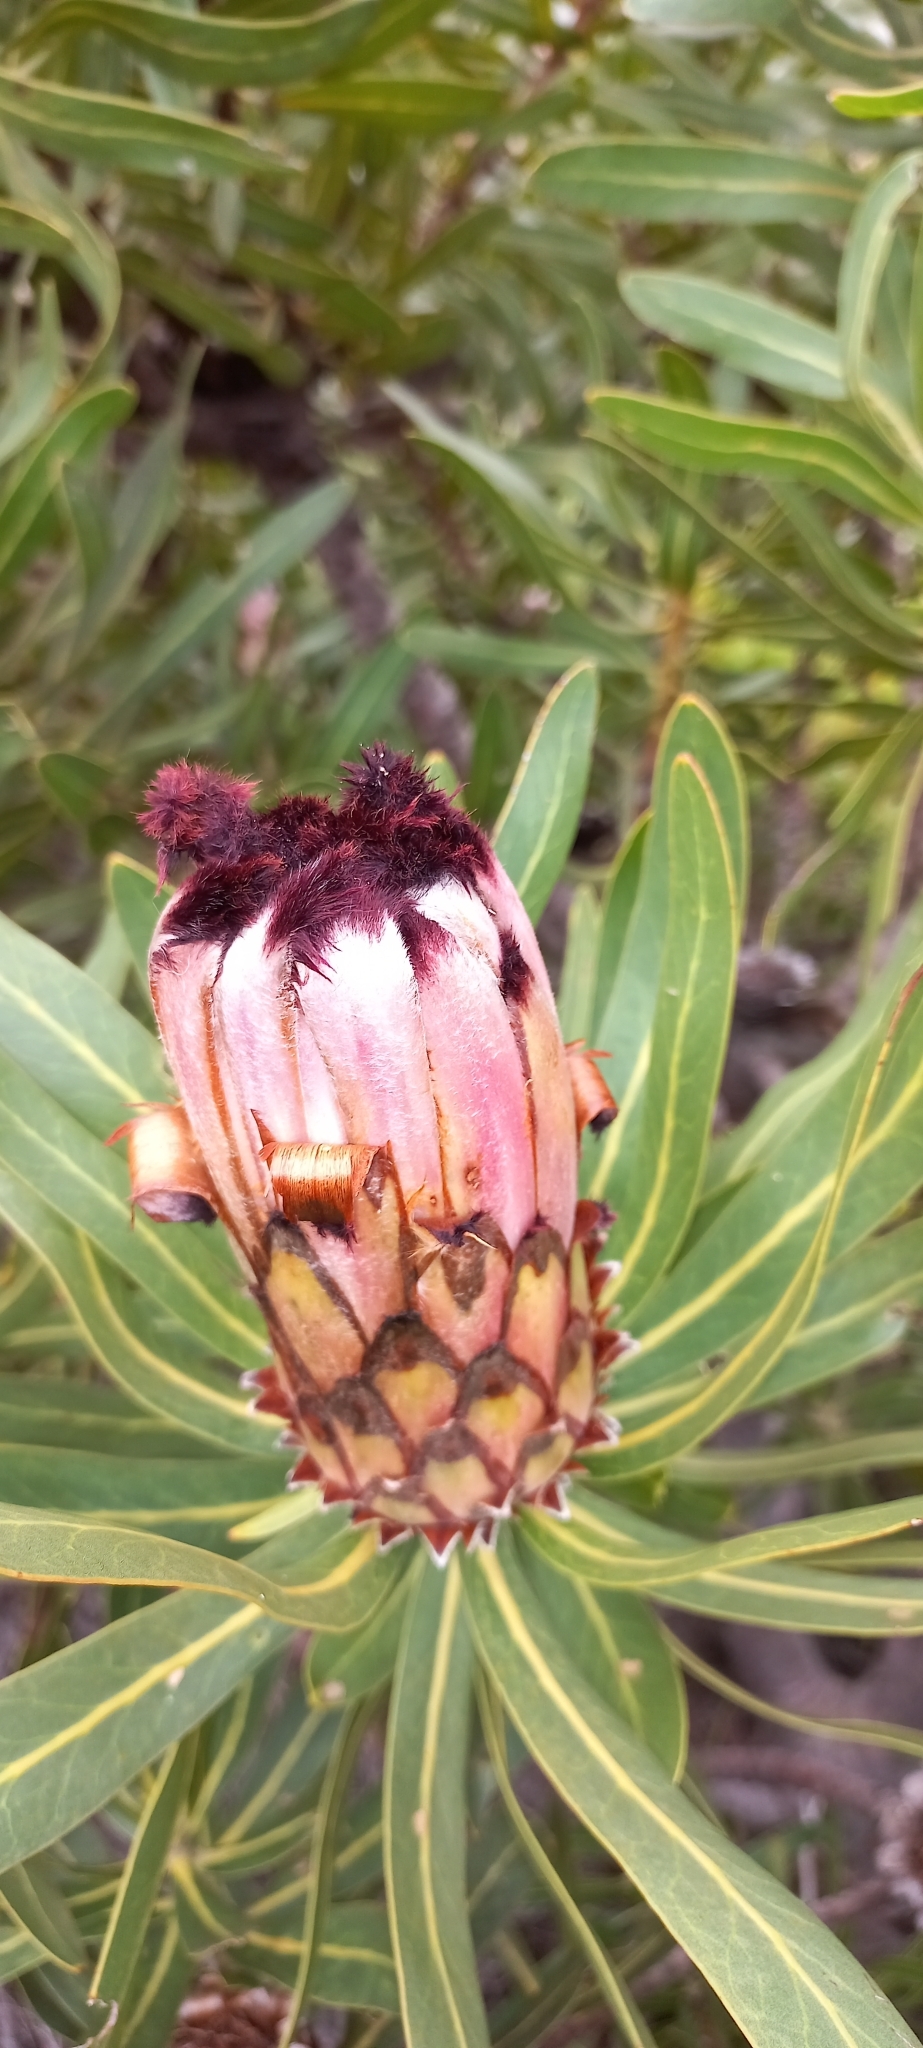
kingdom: Plantae
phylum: Tracheophyta
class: Magnoliopsida
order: Proteales
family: Proteaceae
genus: Protea
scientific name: Protea neriifolia
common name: Blue sugarbush
